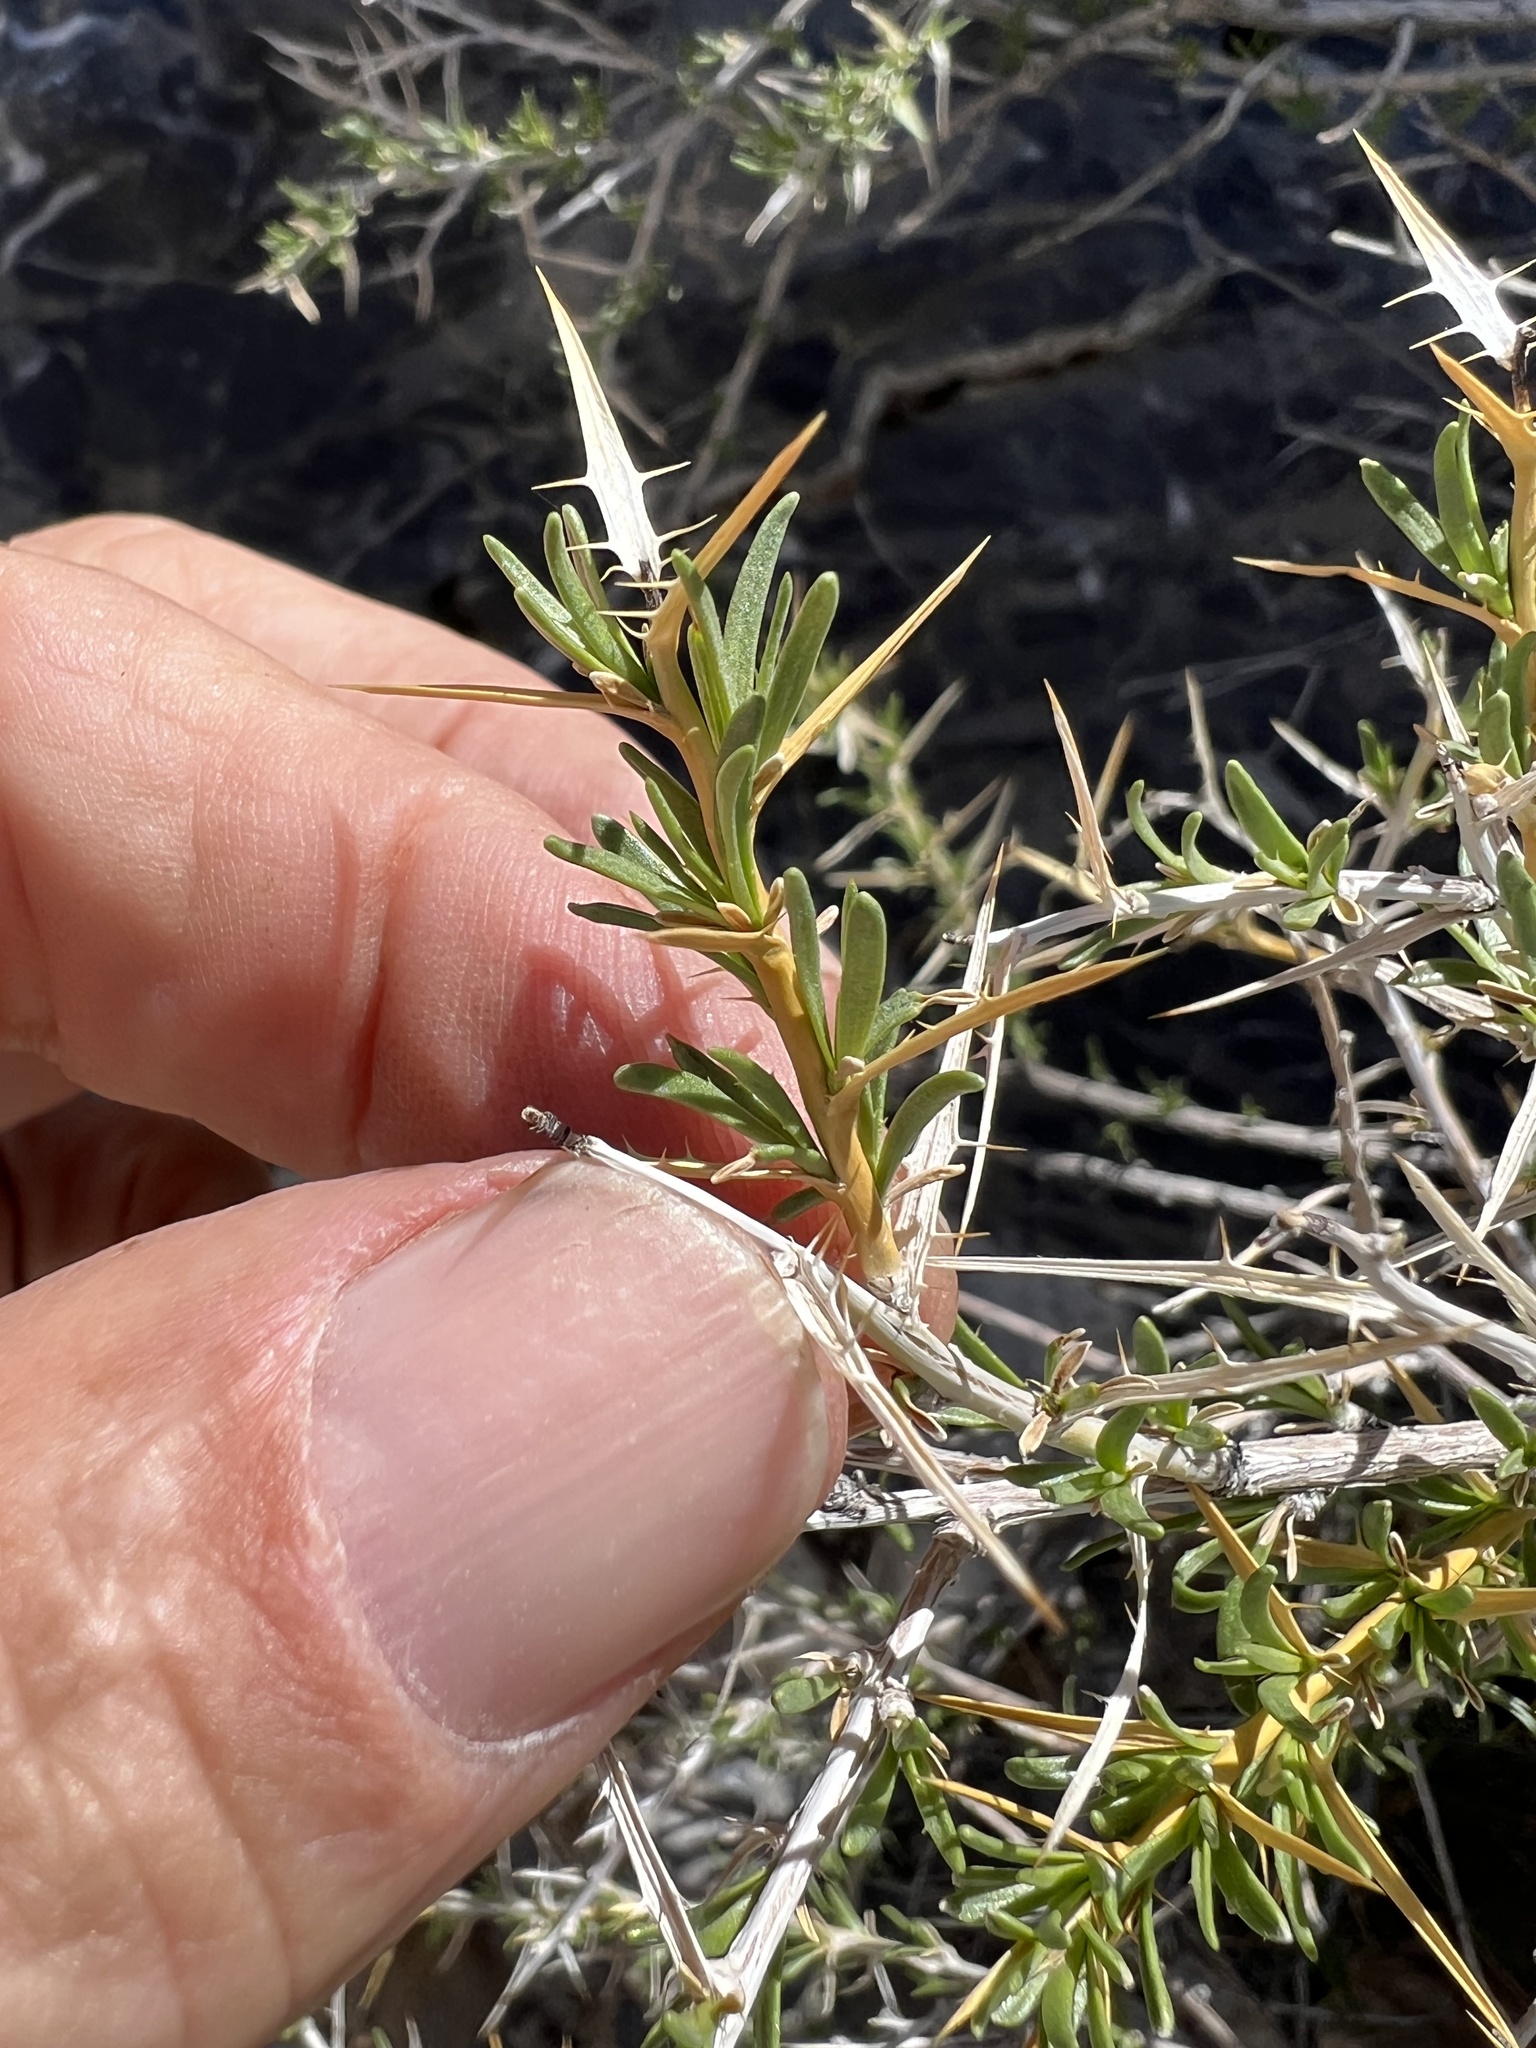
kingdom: Plantae
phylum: Tracheophyta
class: Magnoliopsida
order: Asterales
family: Asteraceae
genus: Hecastocleis
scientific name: Hecastocleis shockleyi
